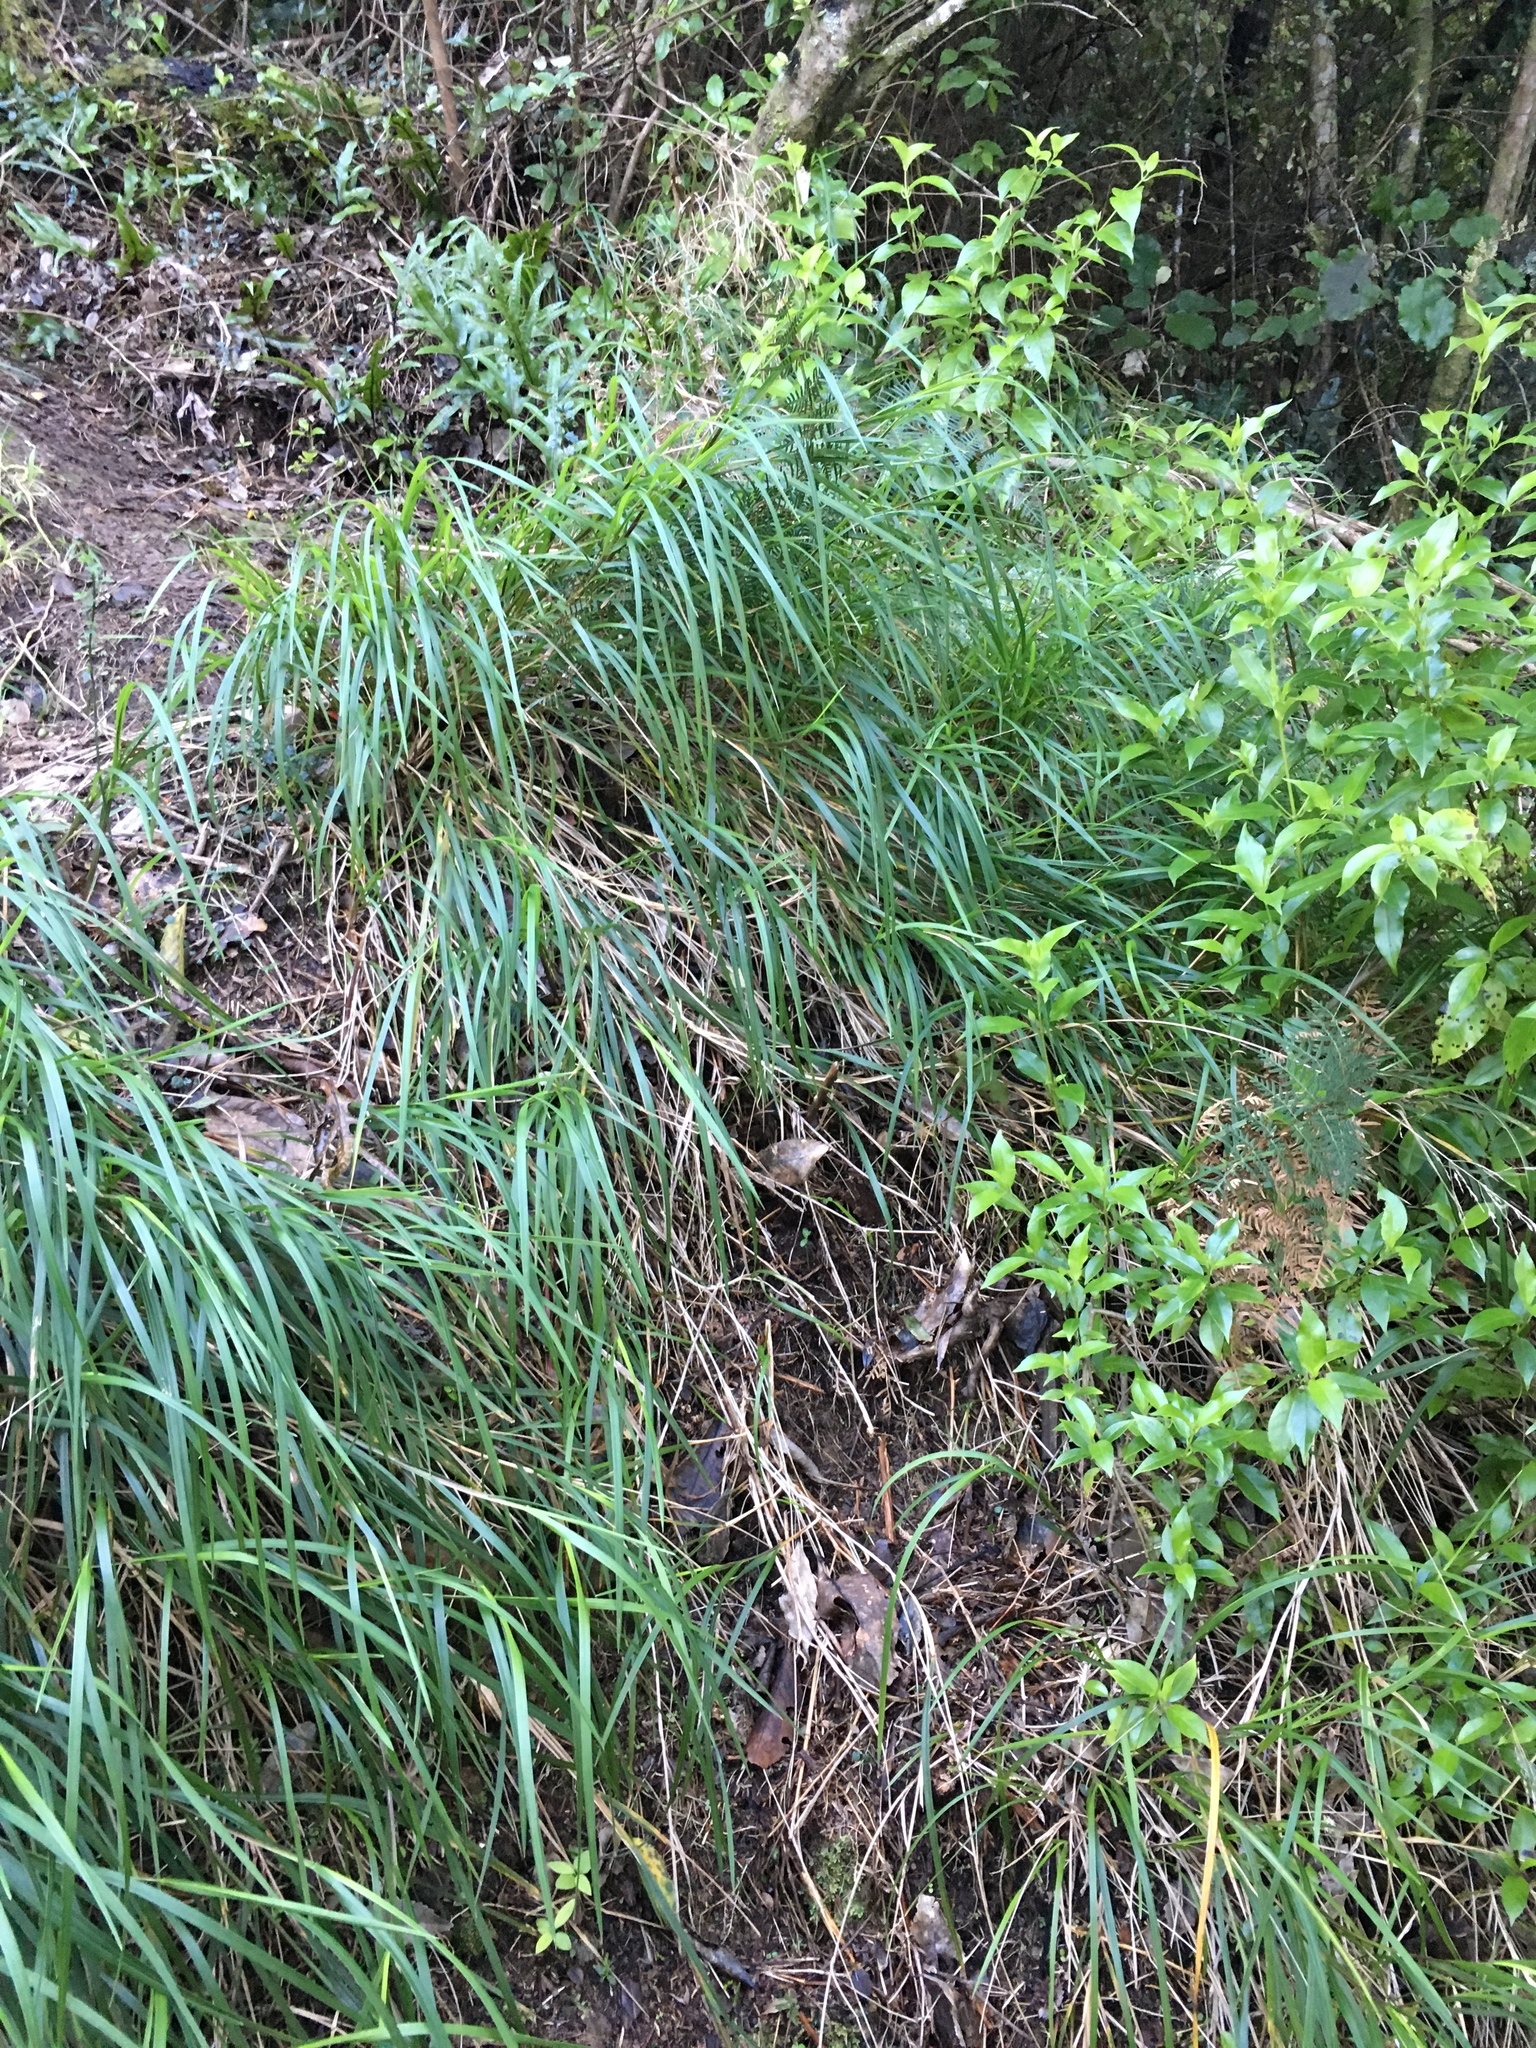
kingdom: Plantae
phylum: Tracheophyta
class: Liliopsida
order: Poales
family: Poaceae
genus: Poa
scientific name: Poa anceps
